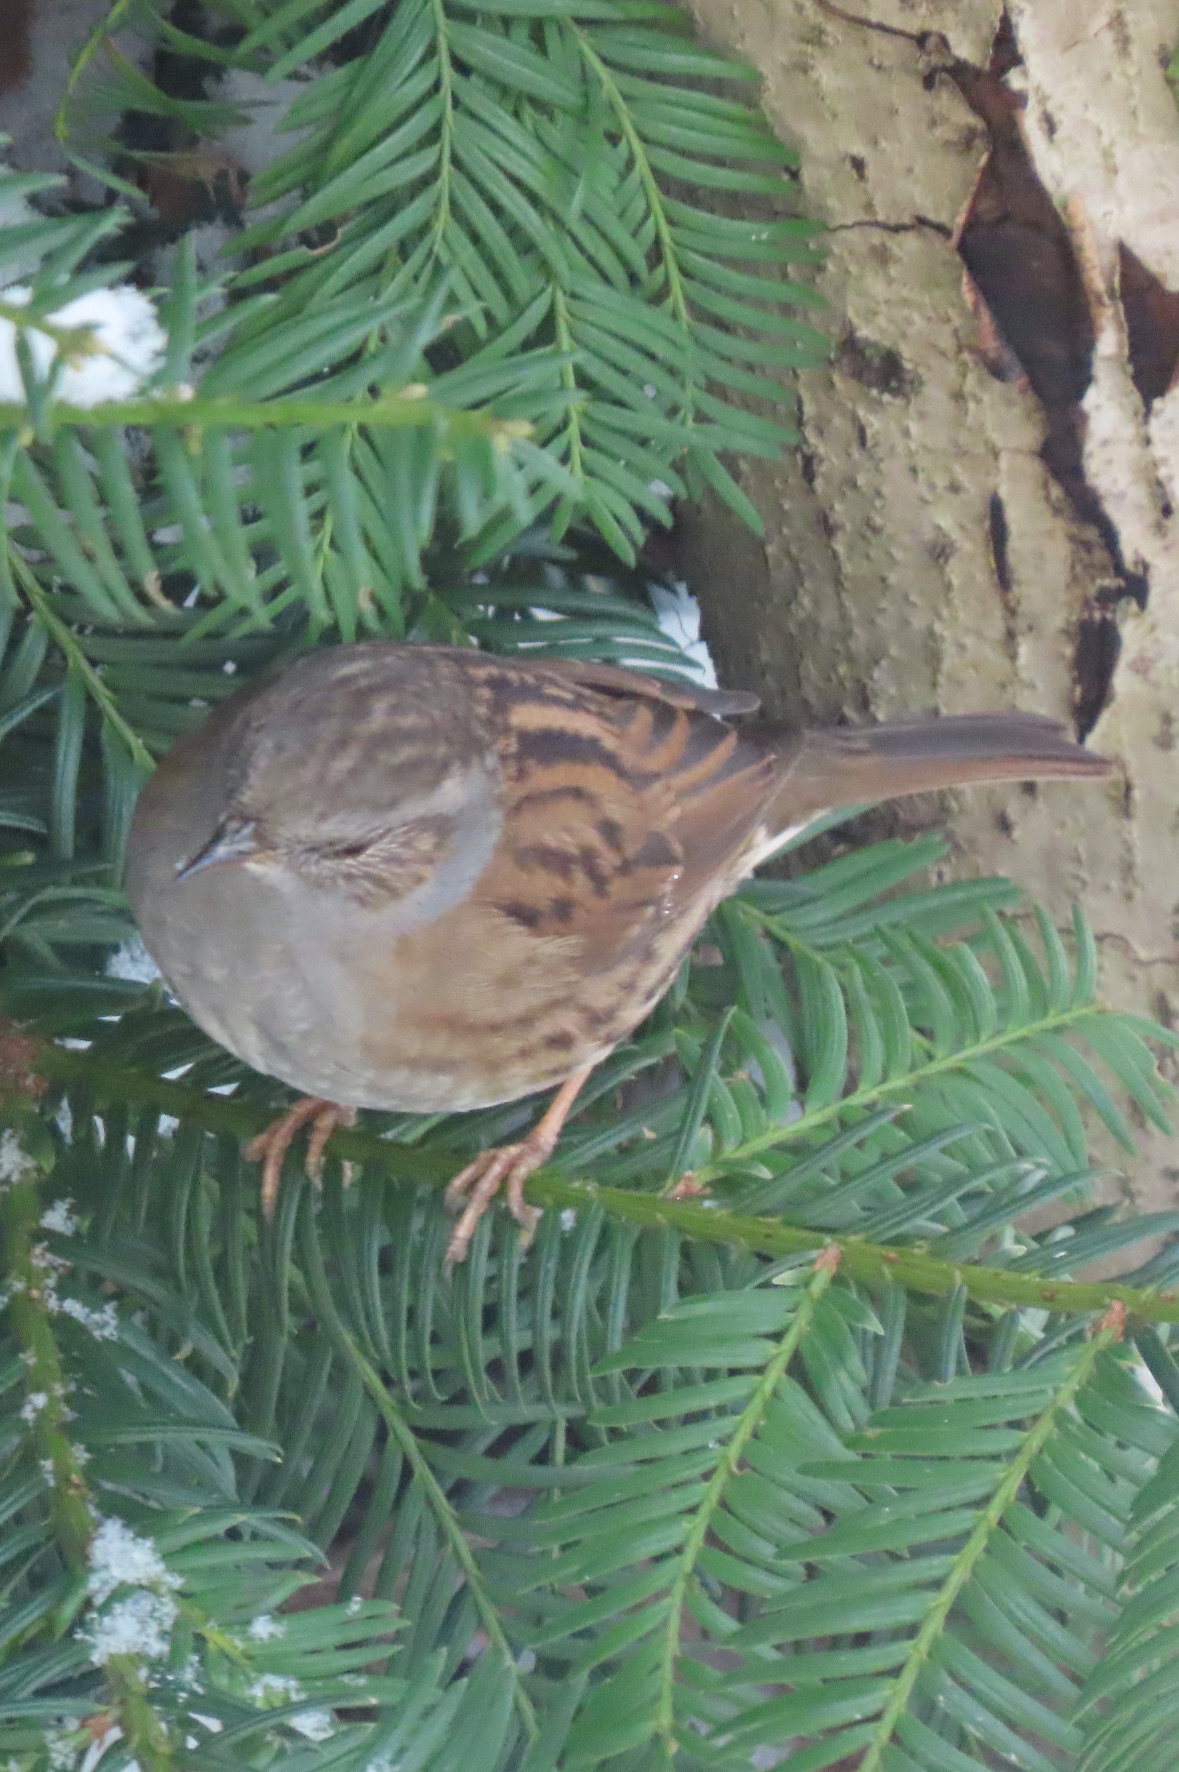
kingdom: Animalia
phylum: Chordata
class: Aves
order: Passeriformes
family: Prunellidae
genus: Prunella
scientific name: Prunella modularis
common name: Dunnock
